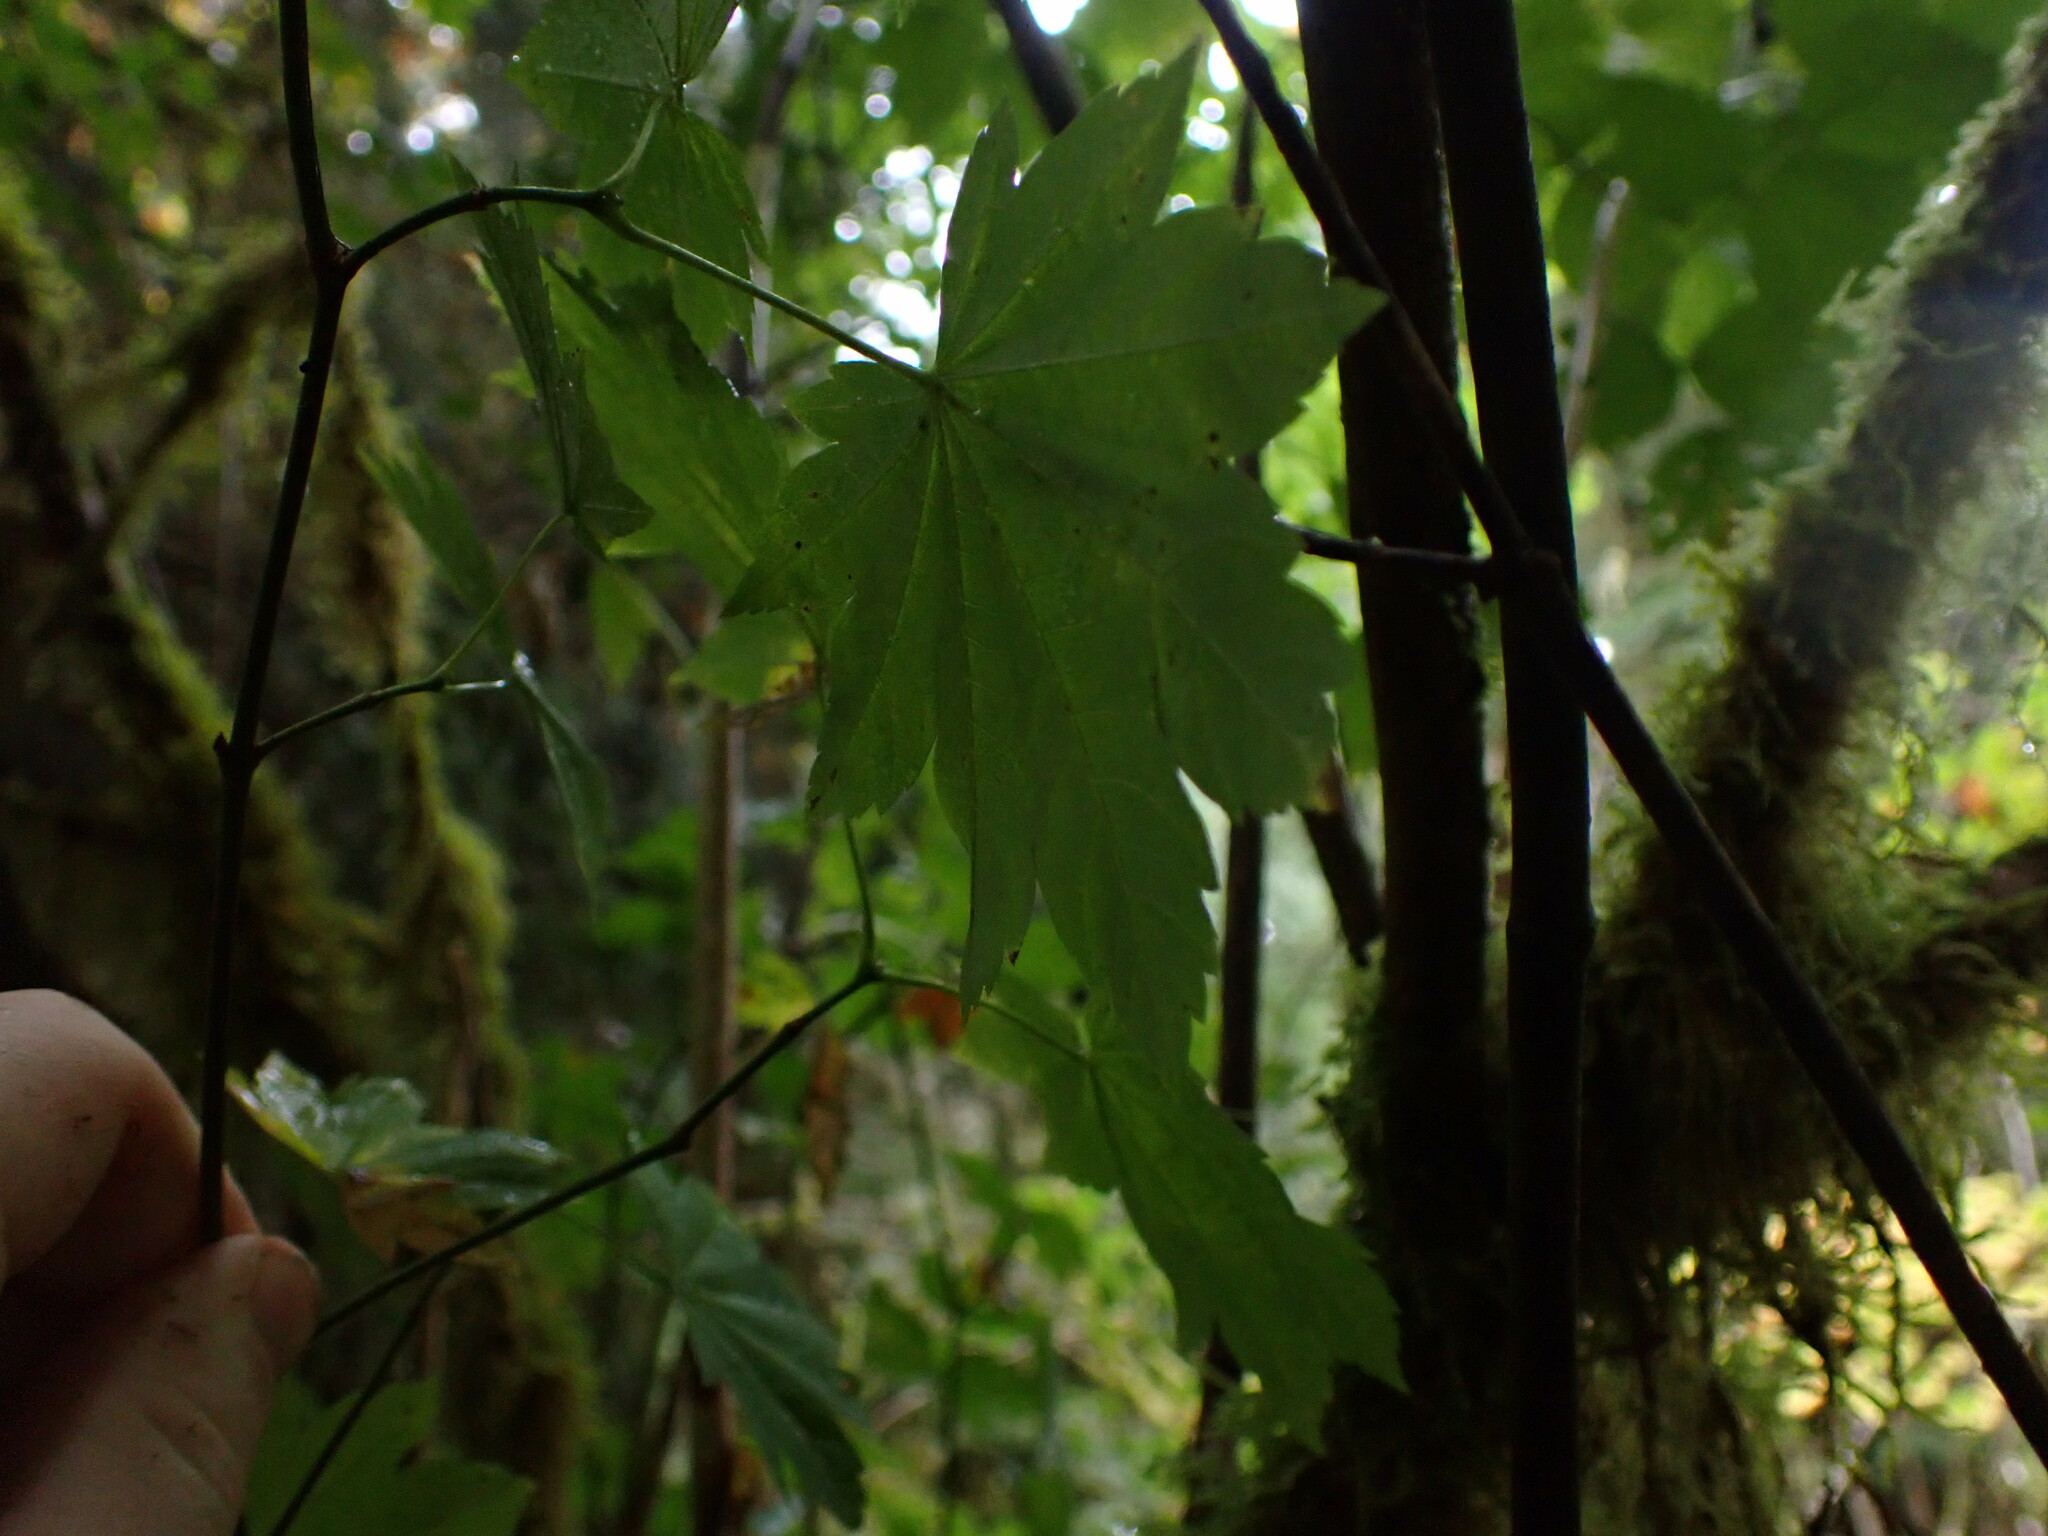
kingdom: Plantae
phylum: Tracheophyta
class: Magnoliopsida
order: Sapindales
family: Sapindaceae
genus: Acer
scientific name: Acer circinatum
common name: Vine maple
